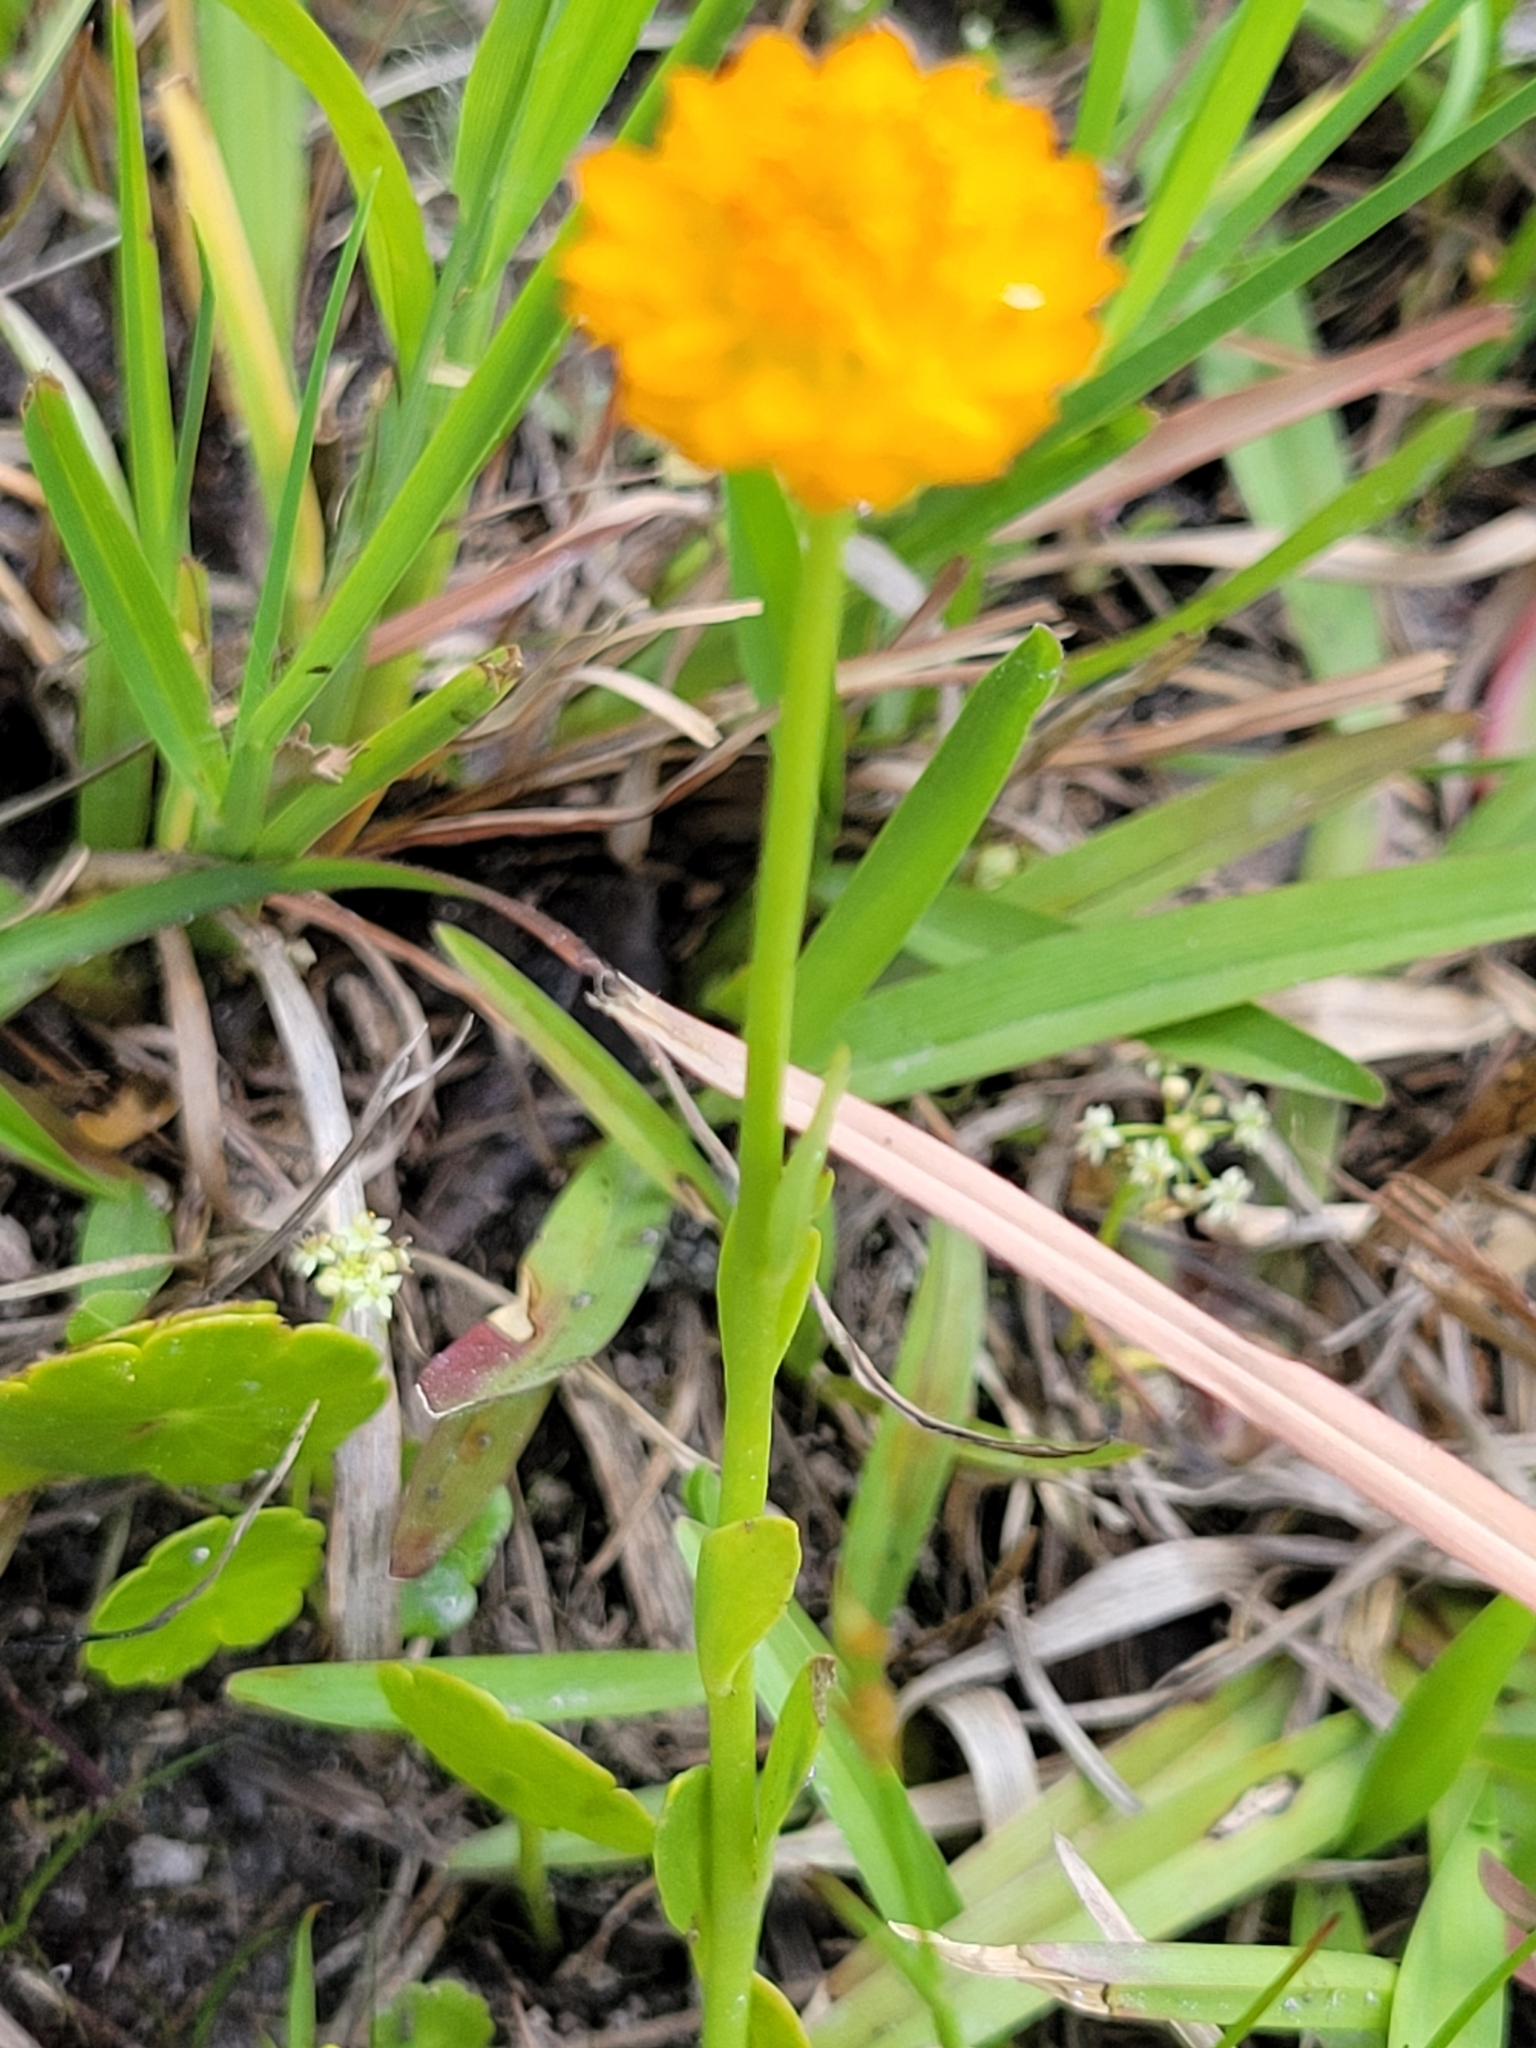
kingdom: Plantae
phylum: Tracheophyta
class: Magnoliopsida
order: Fabales
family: Polygalaceae
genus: Polygala
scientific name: Polygala lutea
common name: Orange milkwort
